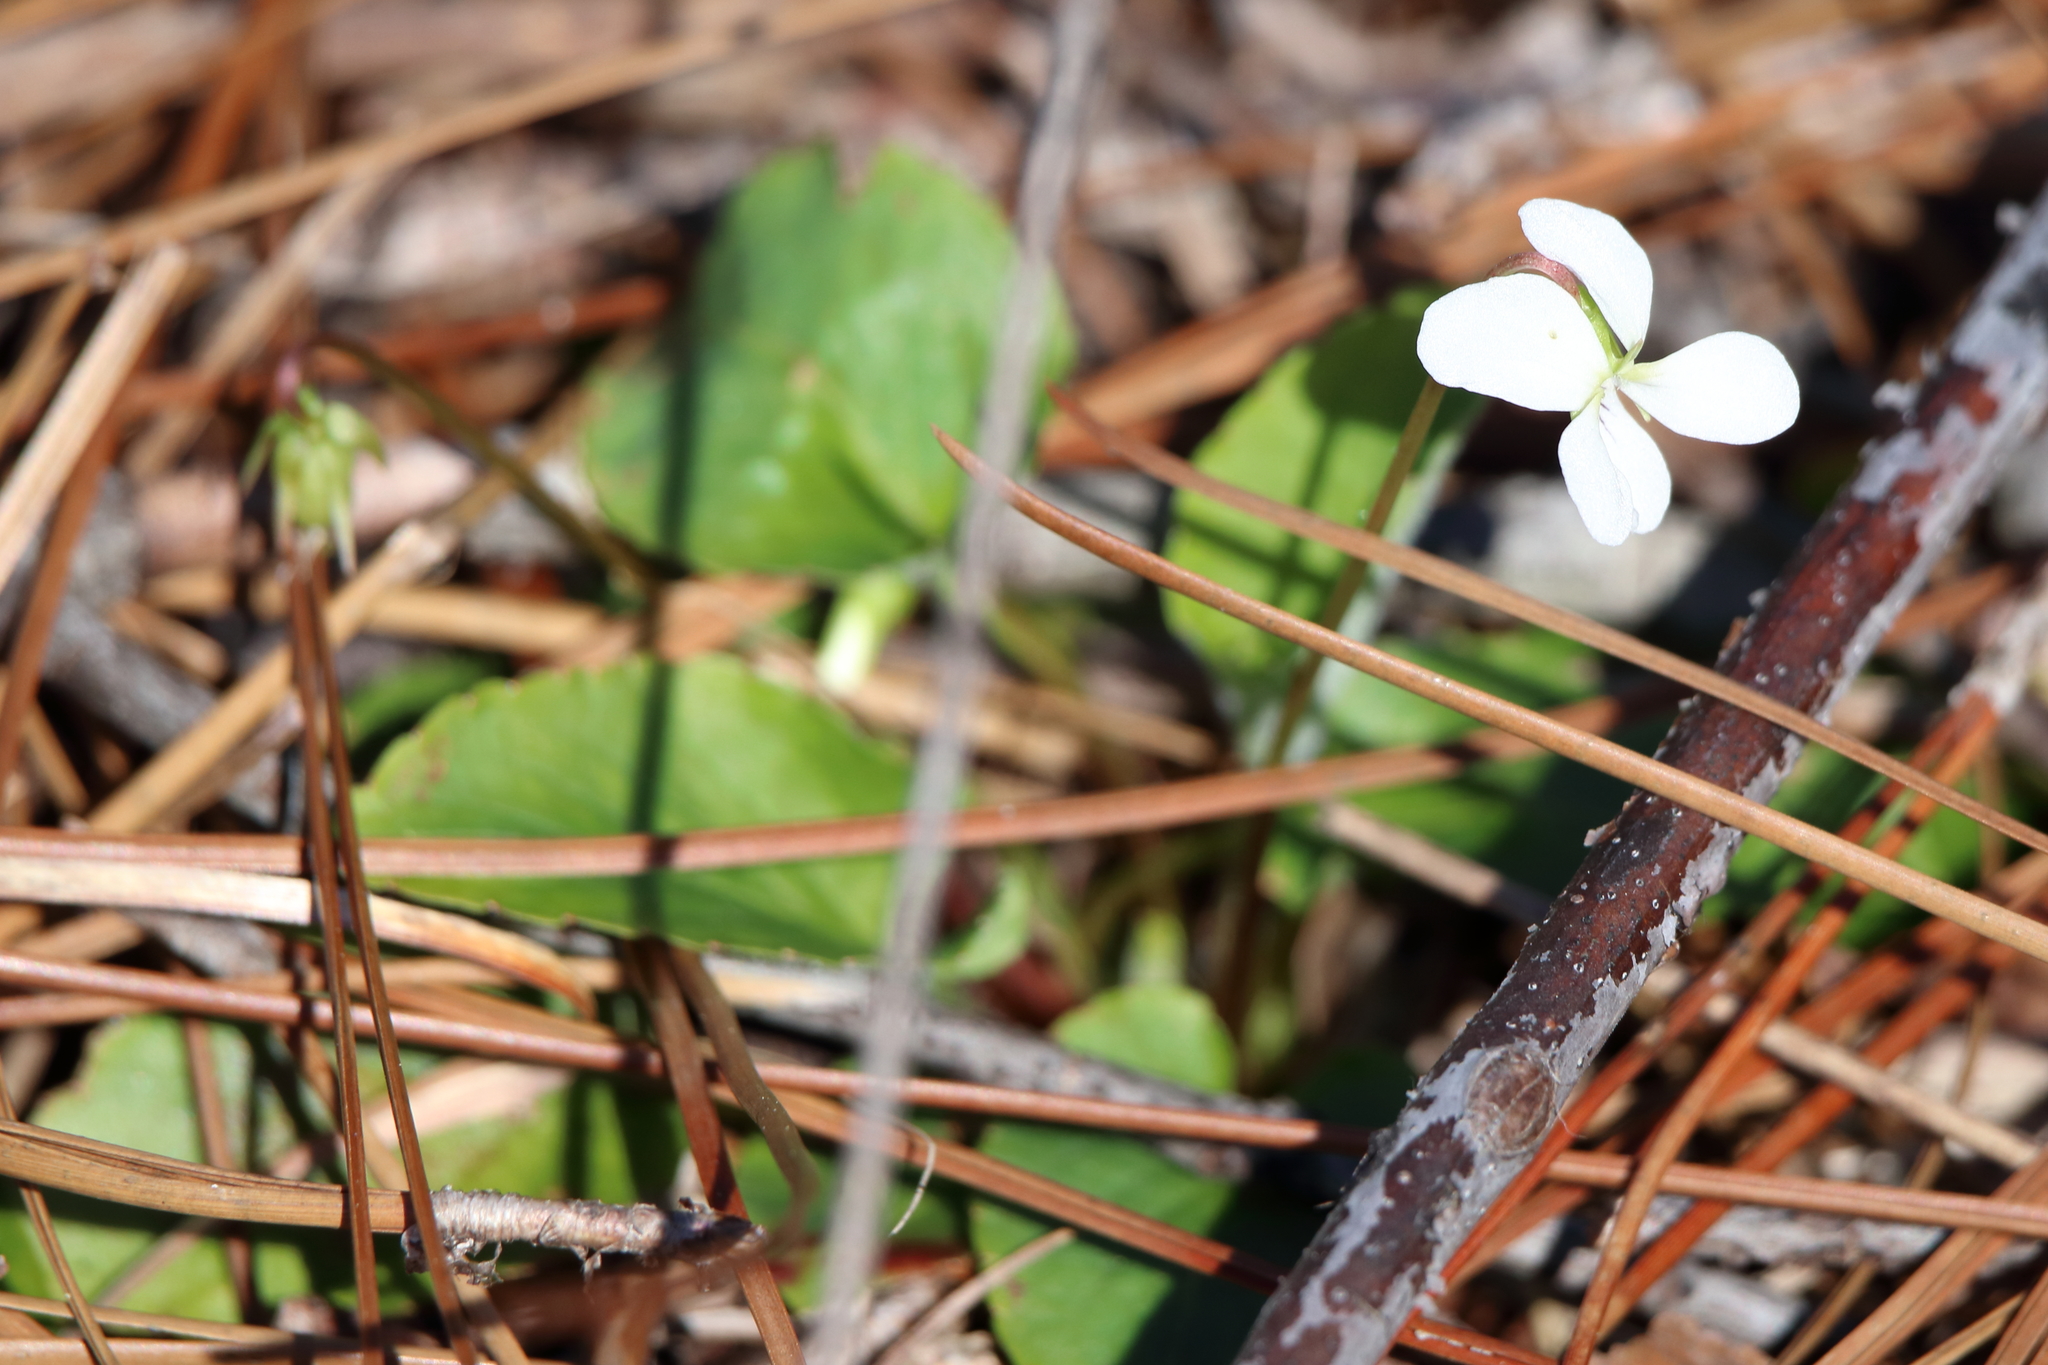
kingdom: Plantae
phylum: Tracheophyta
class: Magnoliopsida
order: Malpighiales
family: Violaceae
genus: Viola
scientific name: Viola primulifolia
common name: Primrose-leaf violet
